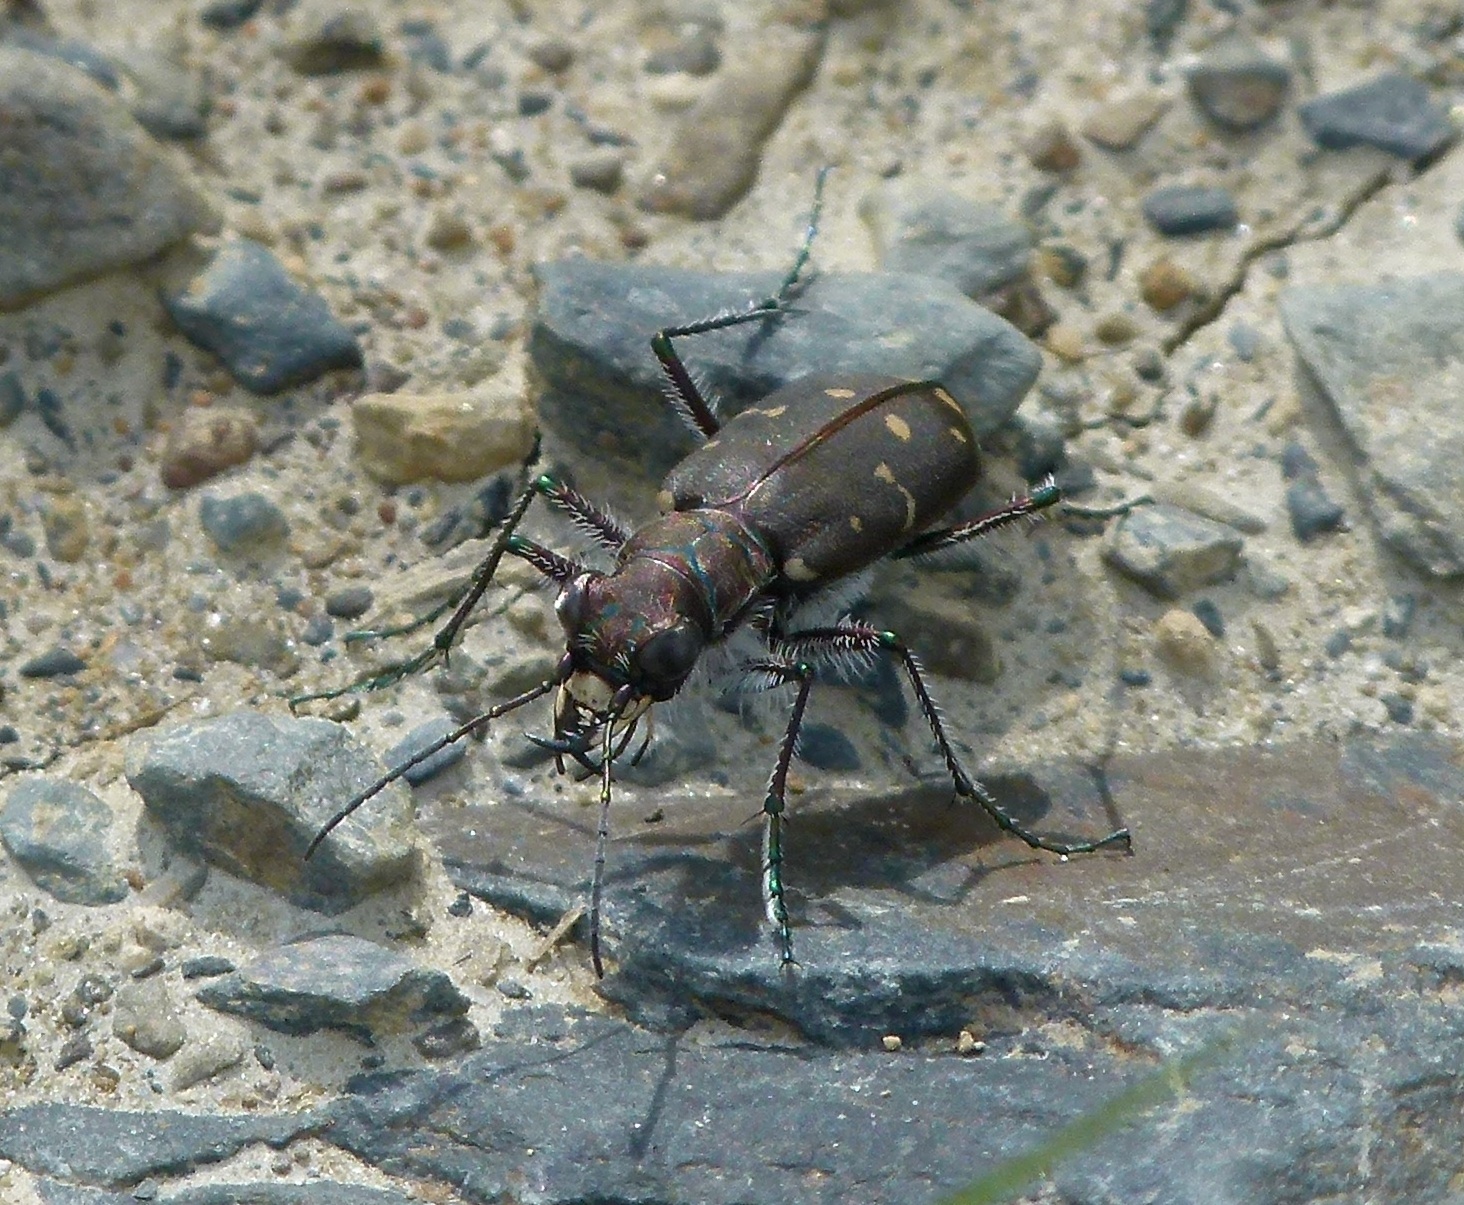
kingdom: Animalia
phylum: Arthropoda
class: Insecta
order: Coleoptera
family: Carabidae
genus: Cicindela
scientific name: Cicindela duodecimguttata
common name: Twelve-spotted tiger beetle
